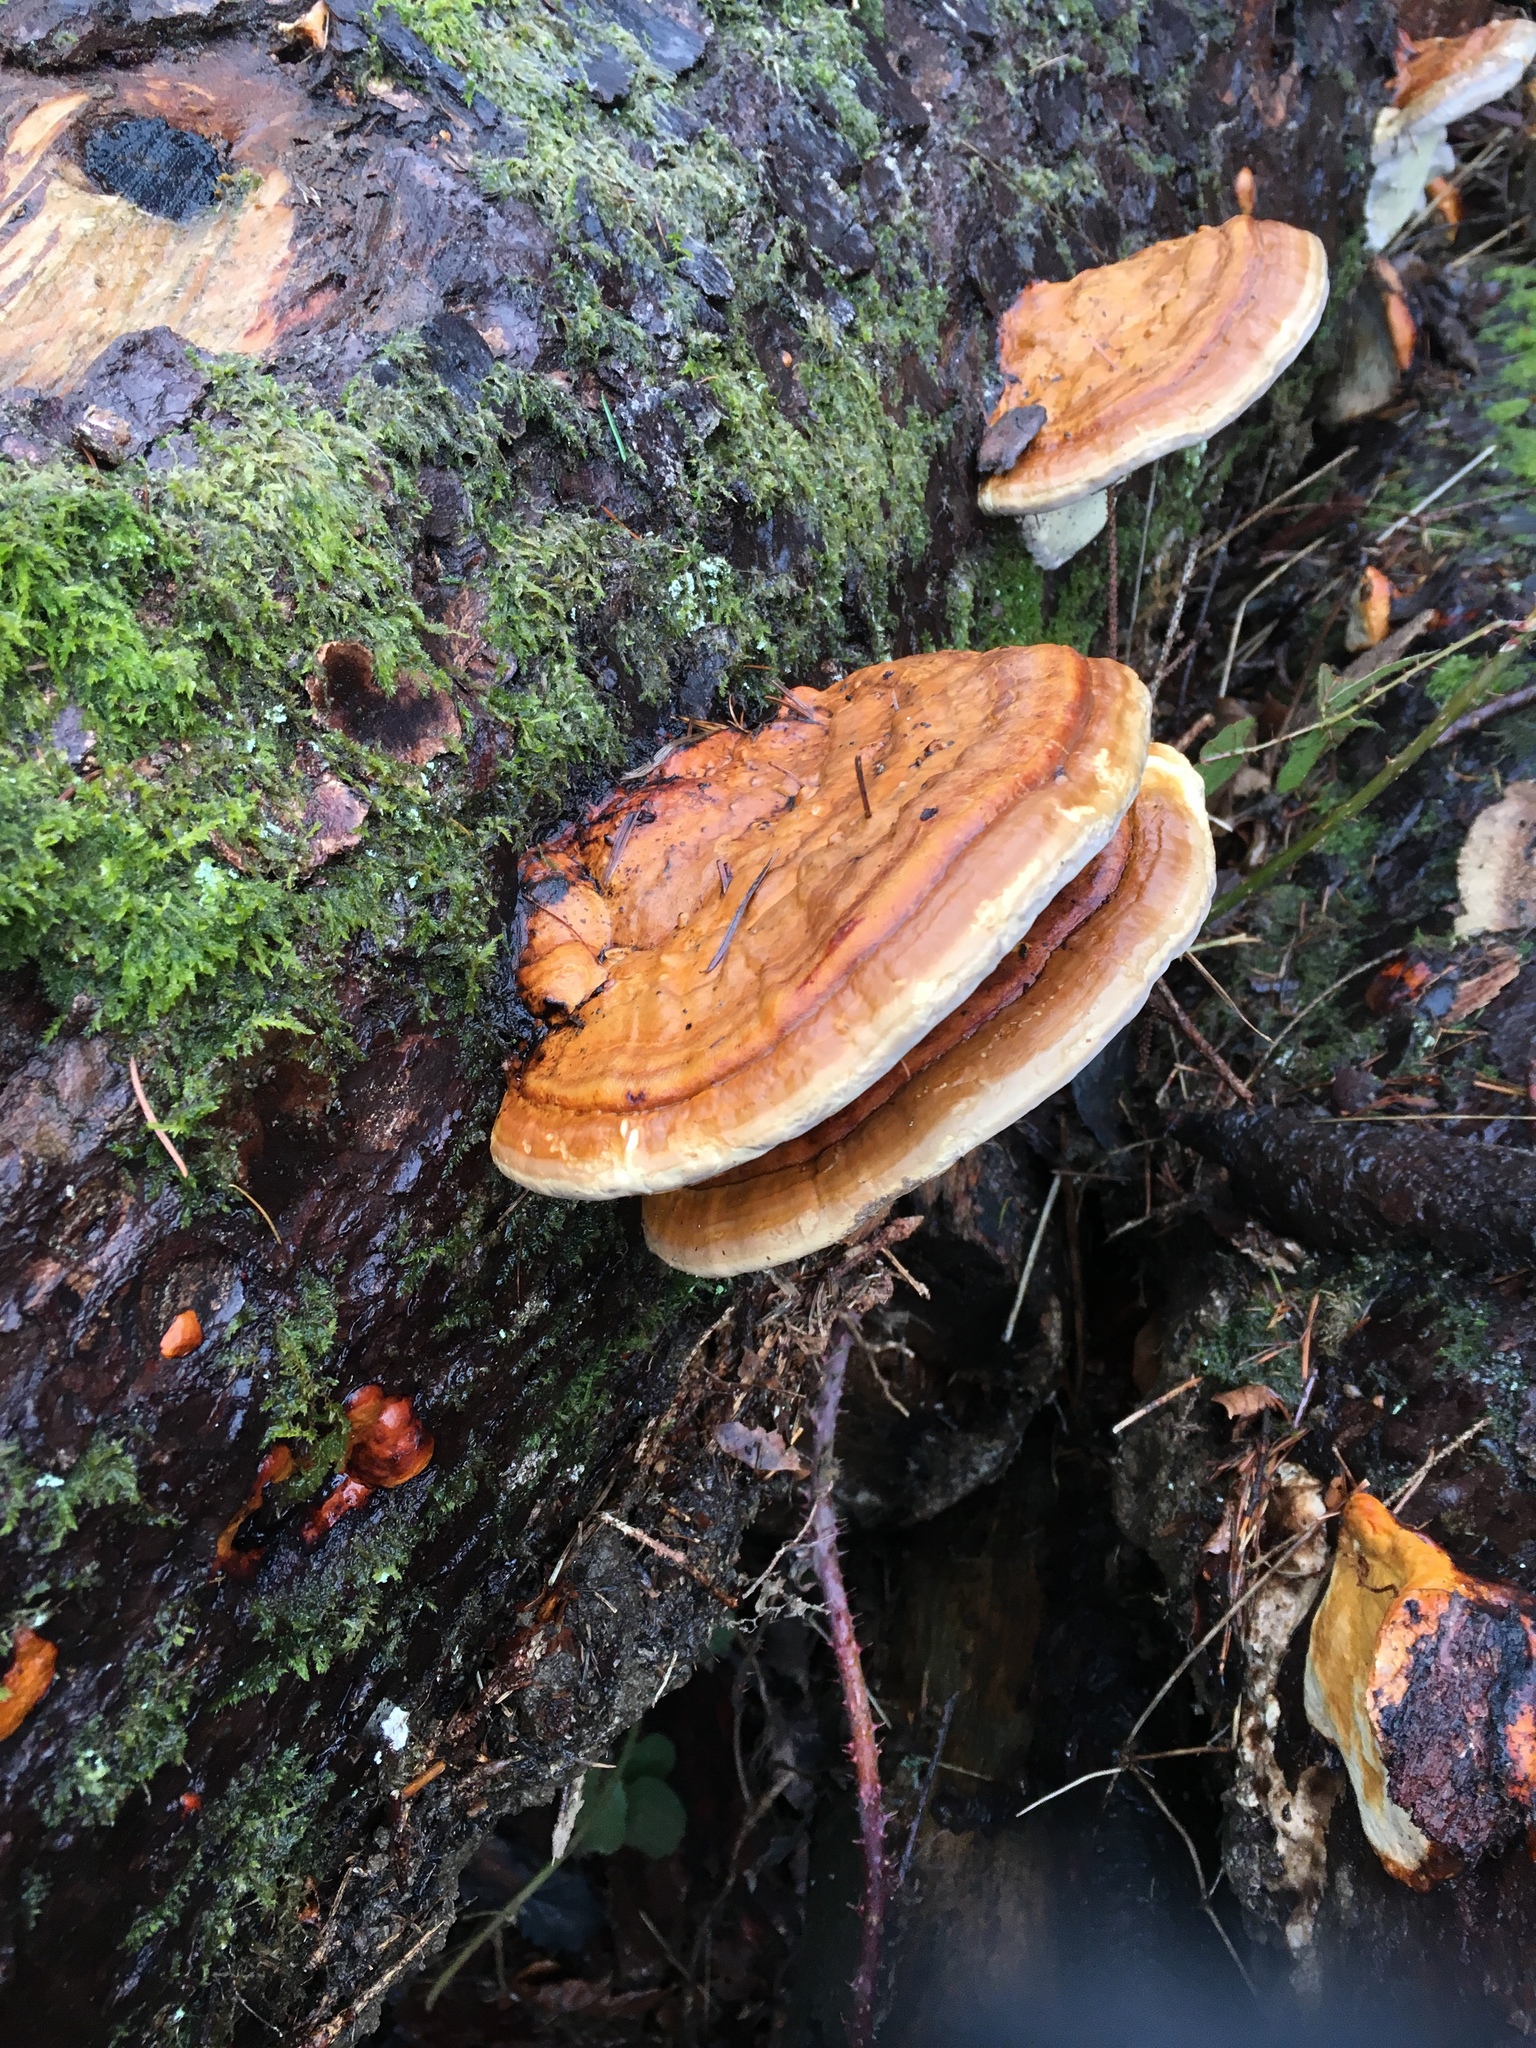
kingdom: Fungi
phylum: Basidiomycota
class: Agaricomycetes
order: Polyporales
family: Fomitopsidaceae
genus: Fomitopsis
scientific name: Fomitopsis pinicola
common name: Red-belted bracket
